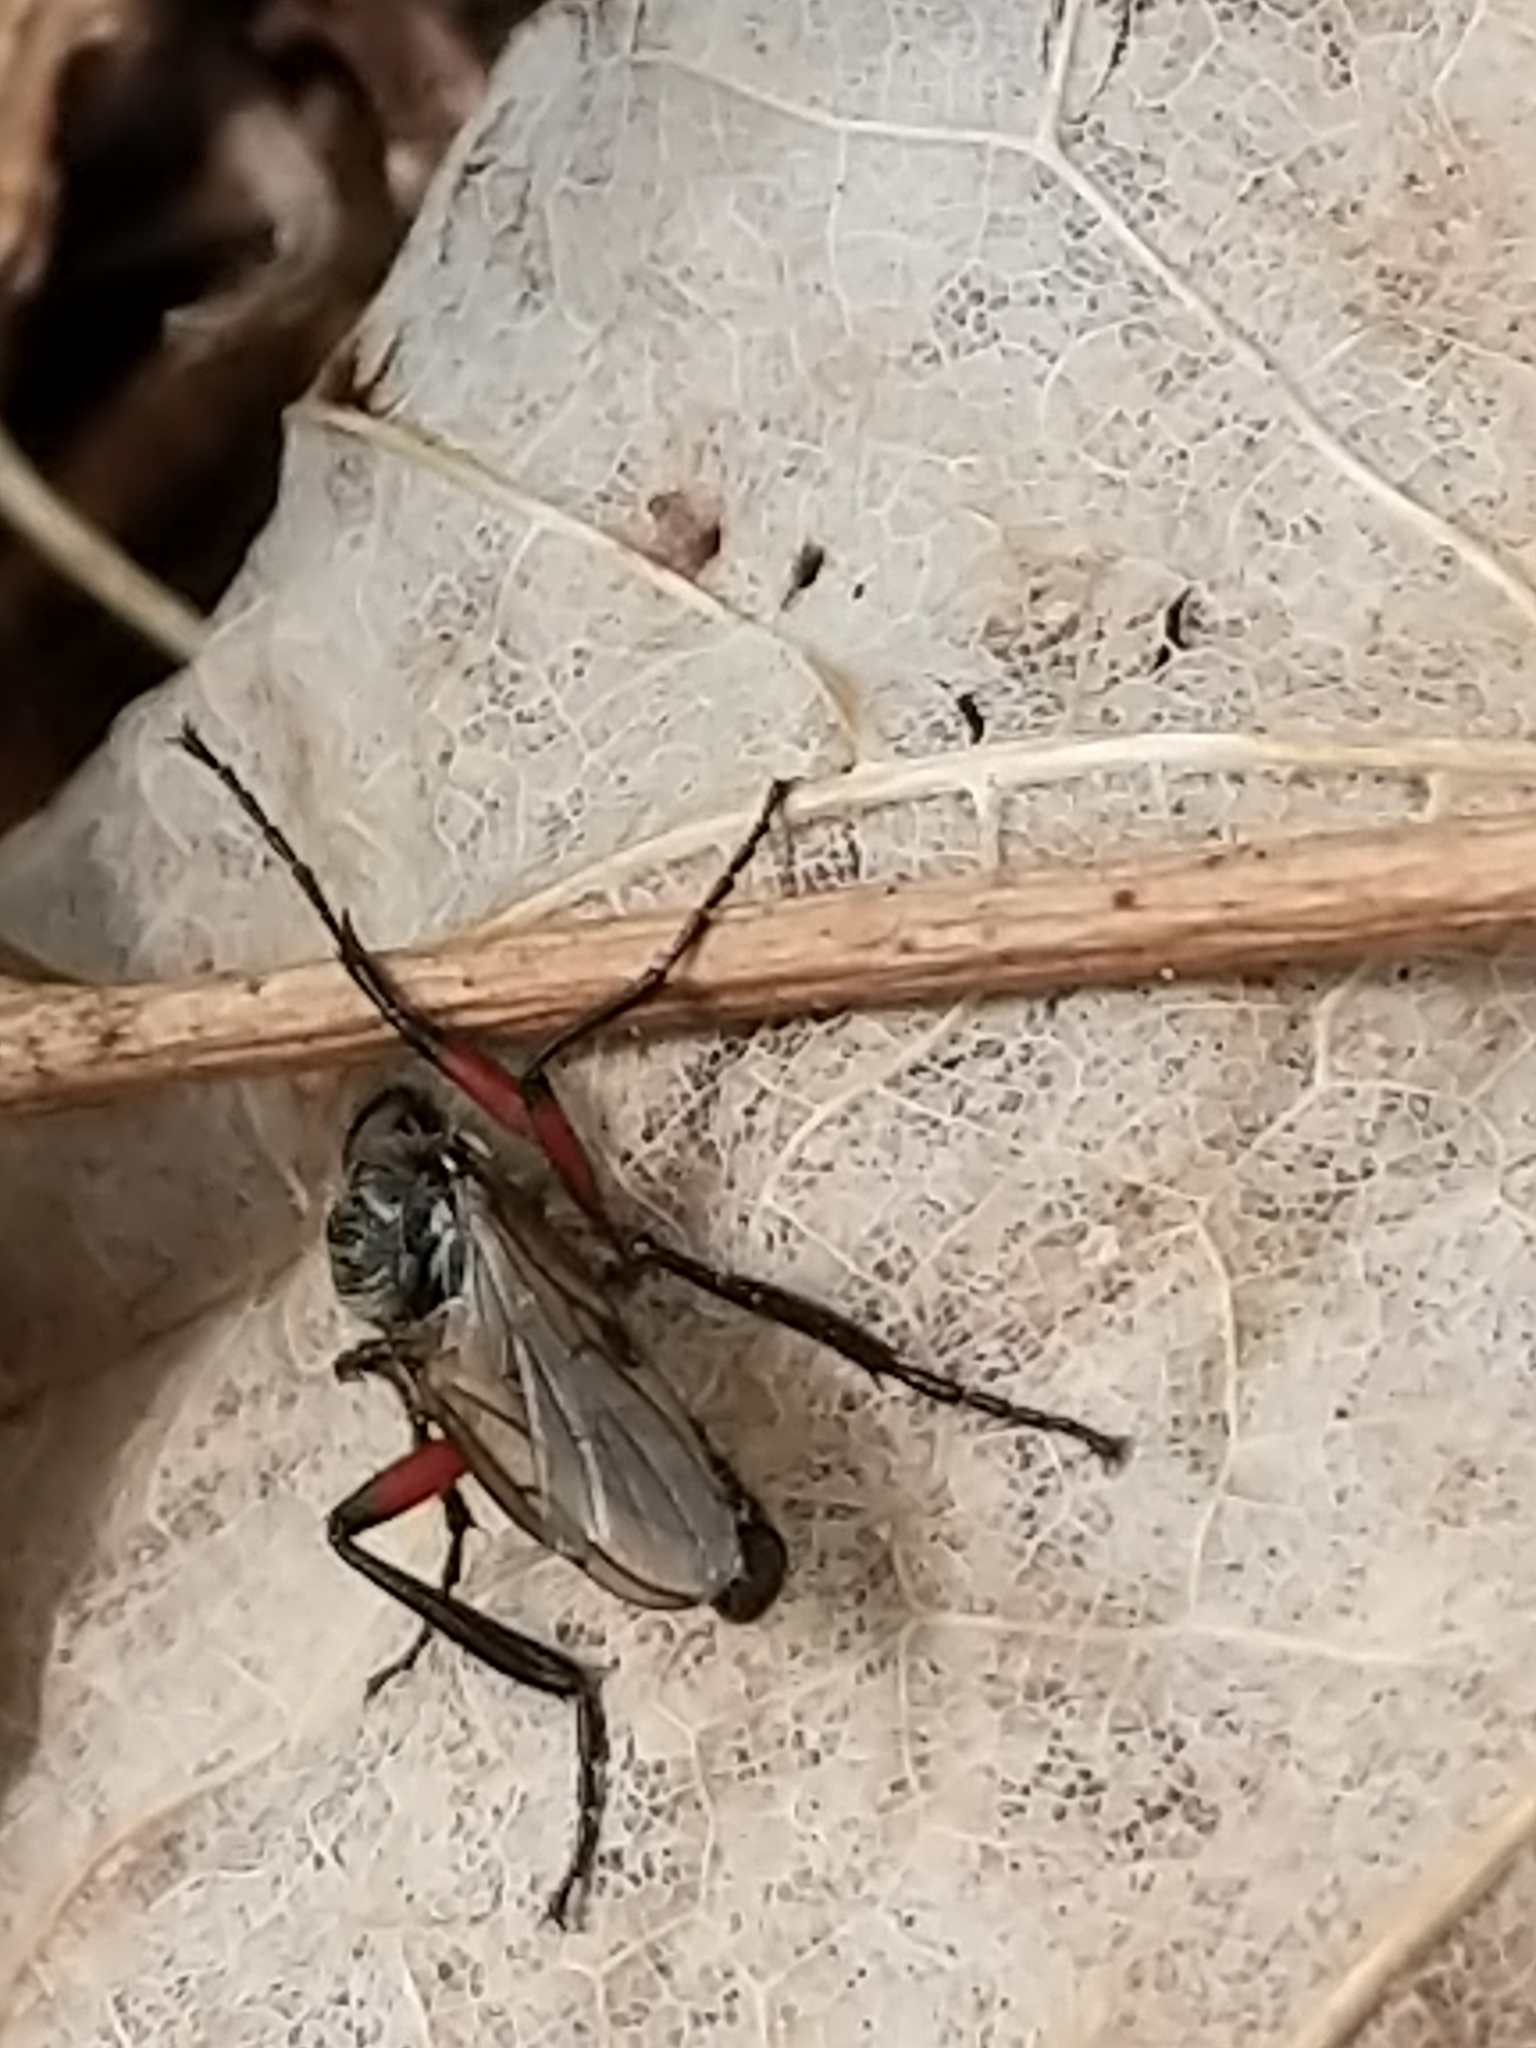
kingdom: Animalia
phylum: Arthropoda
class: Insecta
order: Diptera
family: Bibionidae
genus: Bibio
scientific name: Bibio femoratus
